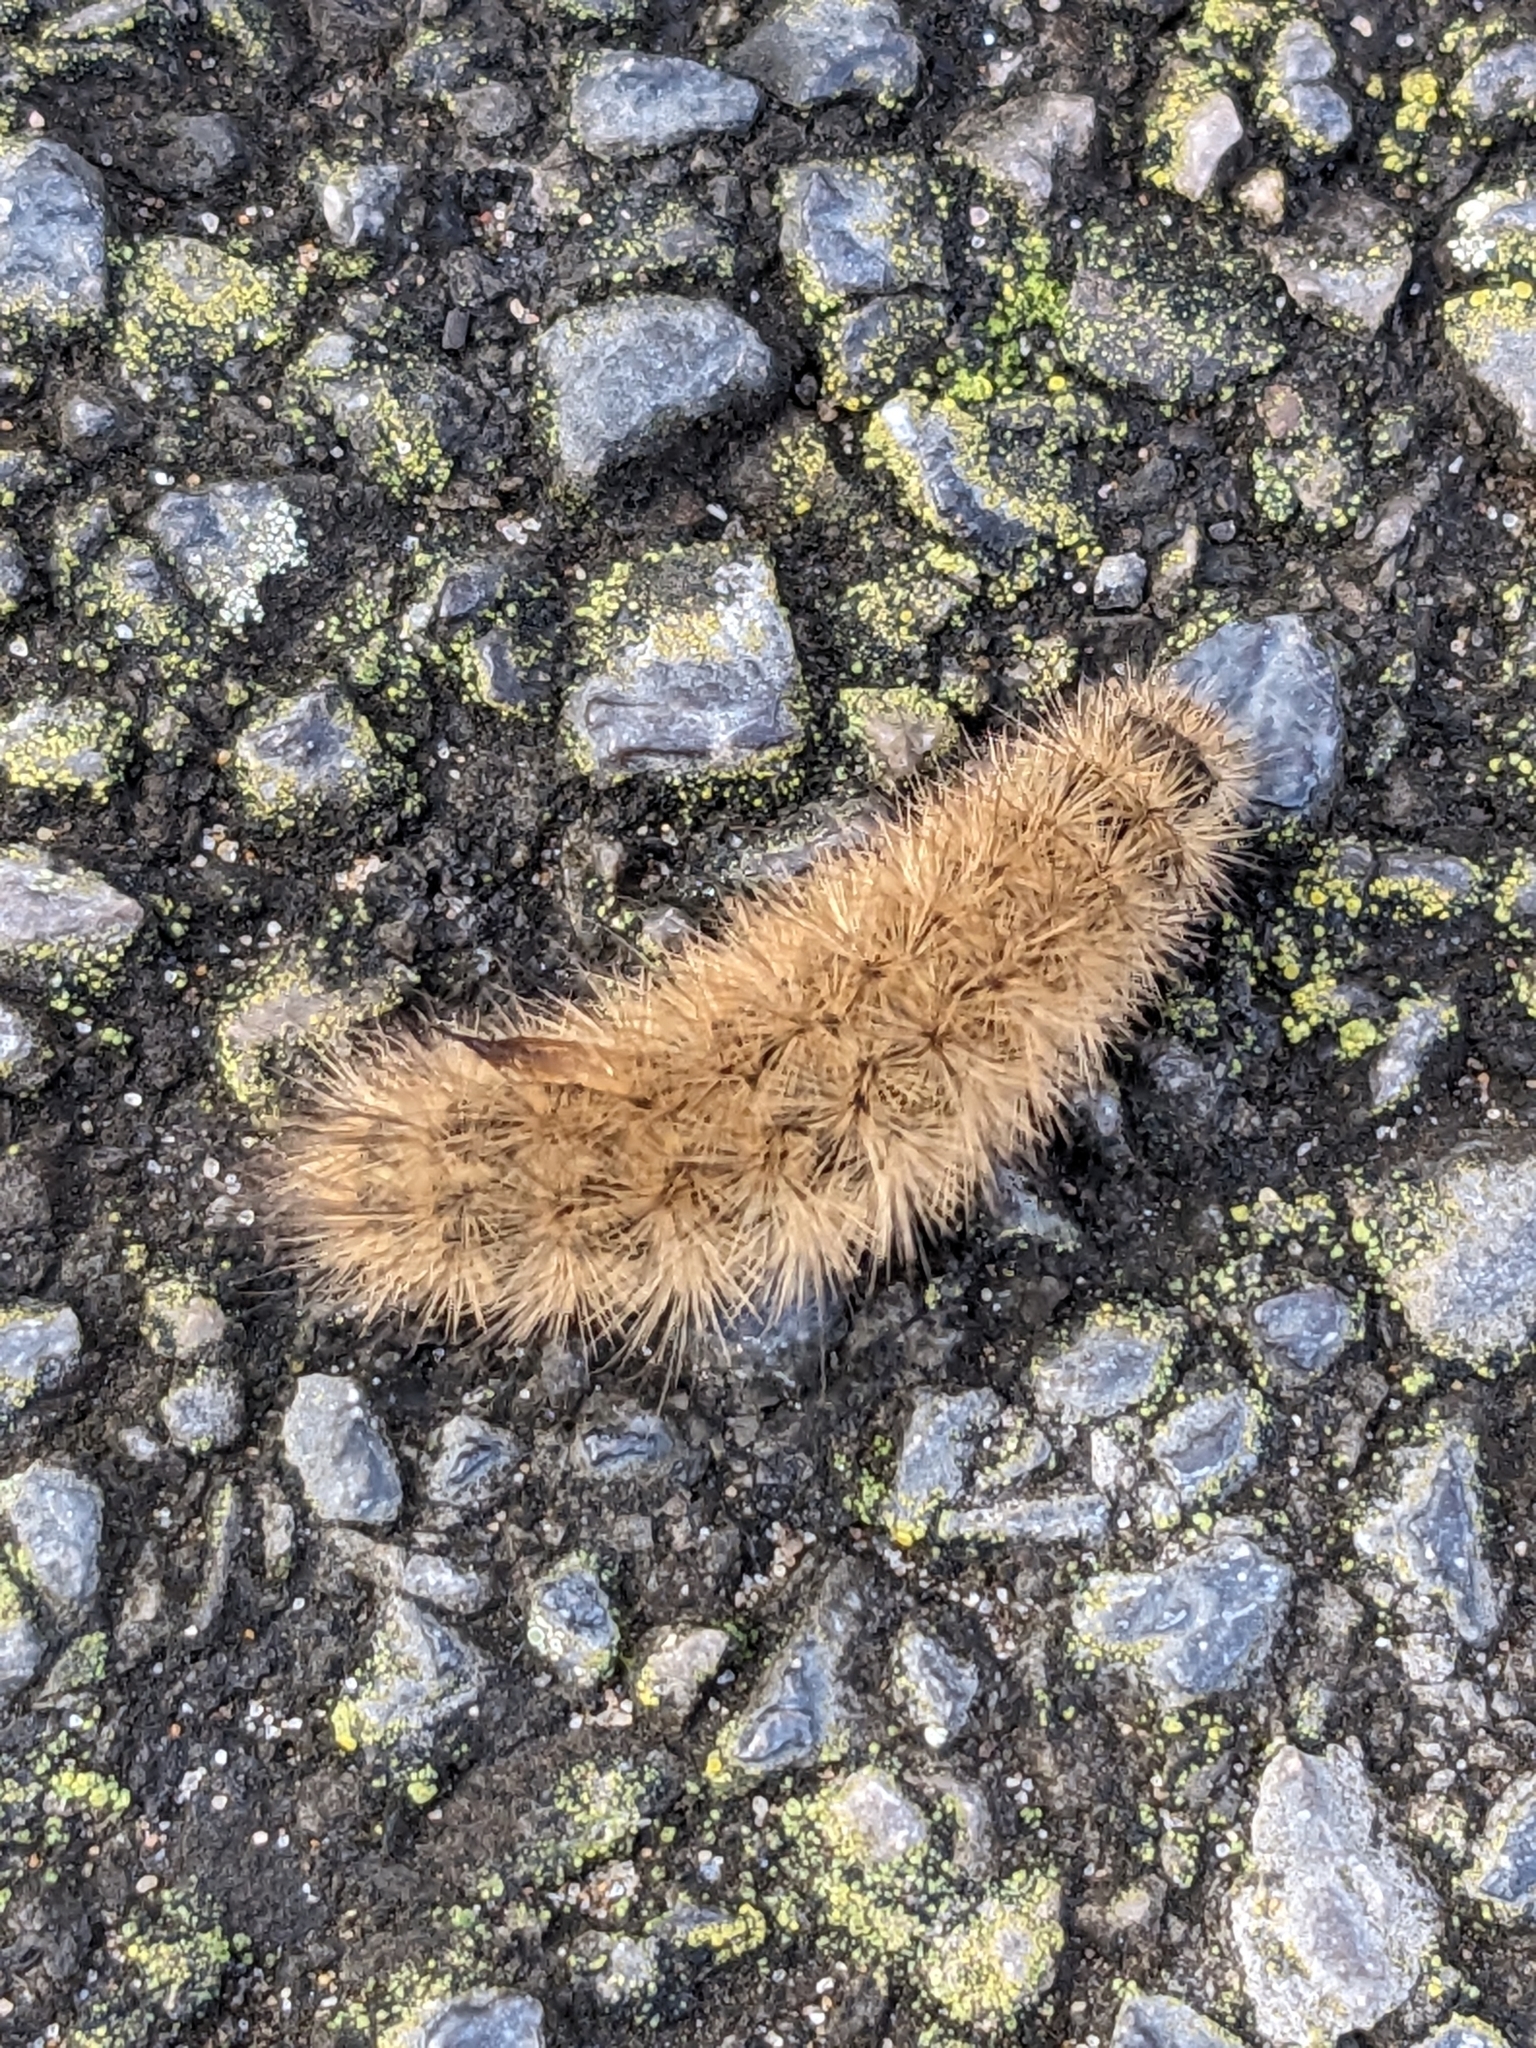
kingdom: Animalia
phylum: Arthropoda
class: Insecta
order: Lepidoptera
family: Erebidae
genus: Phragmatobia
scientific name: Phragmatobia fuliginosa
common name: Ruby tiger
